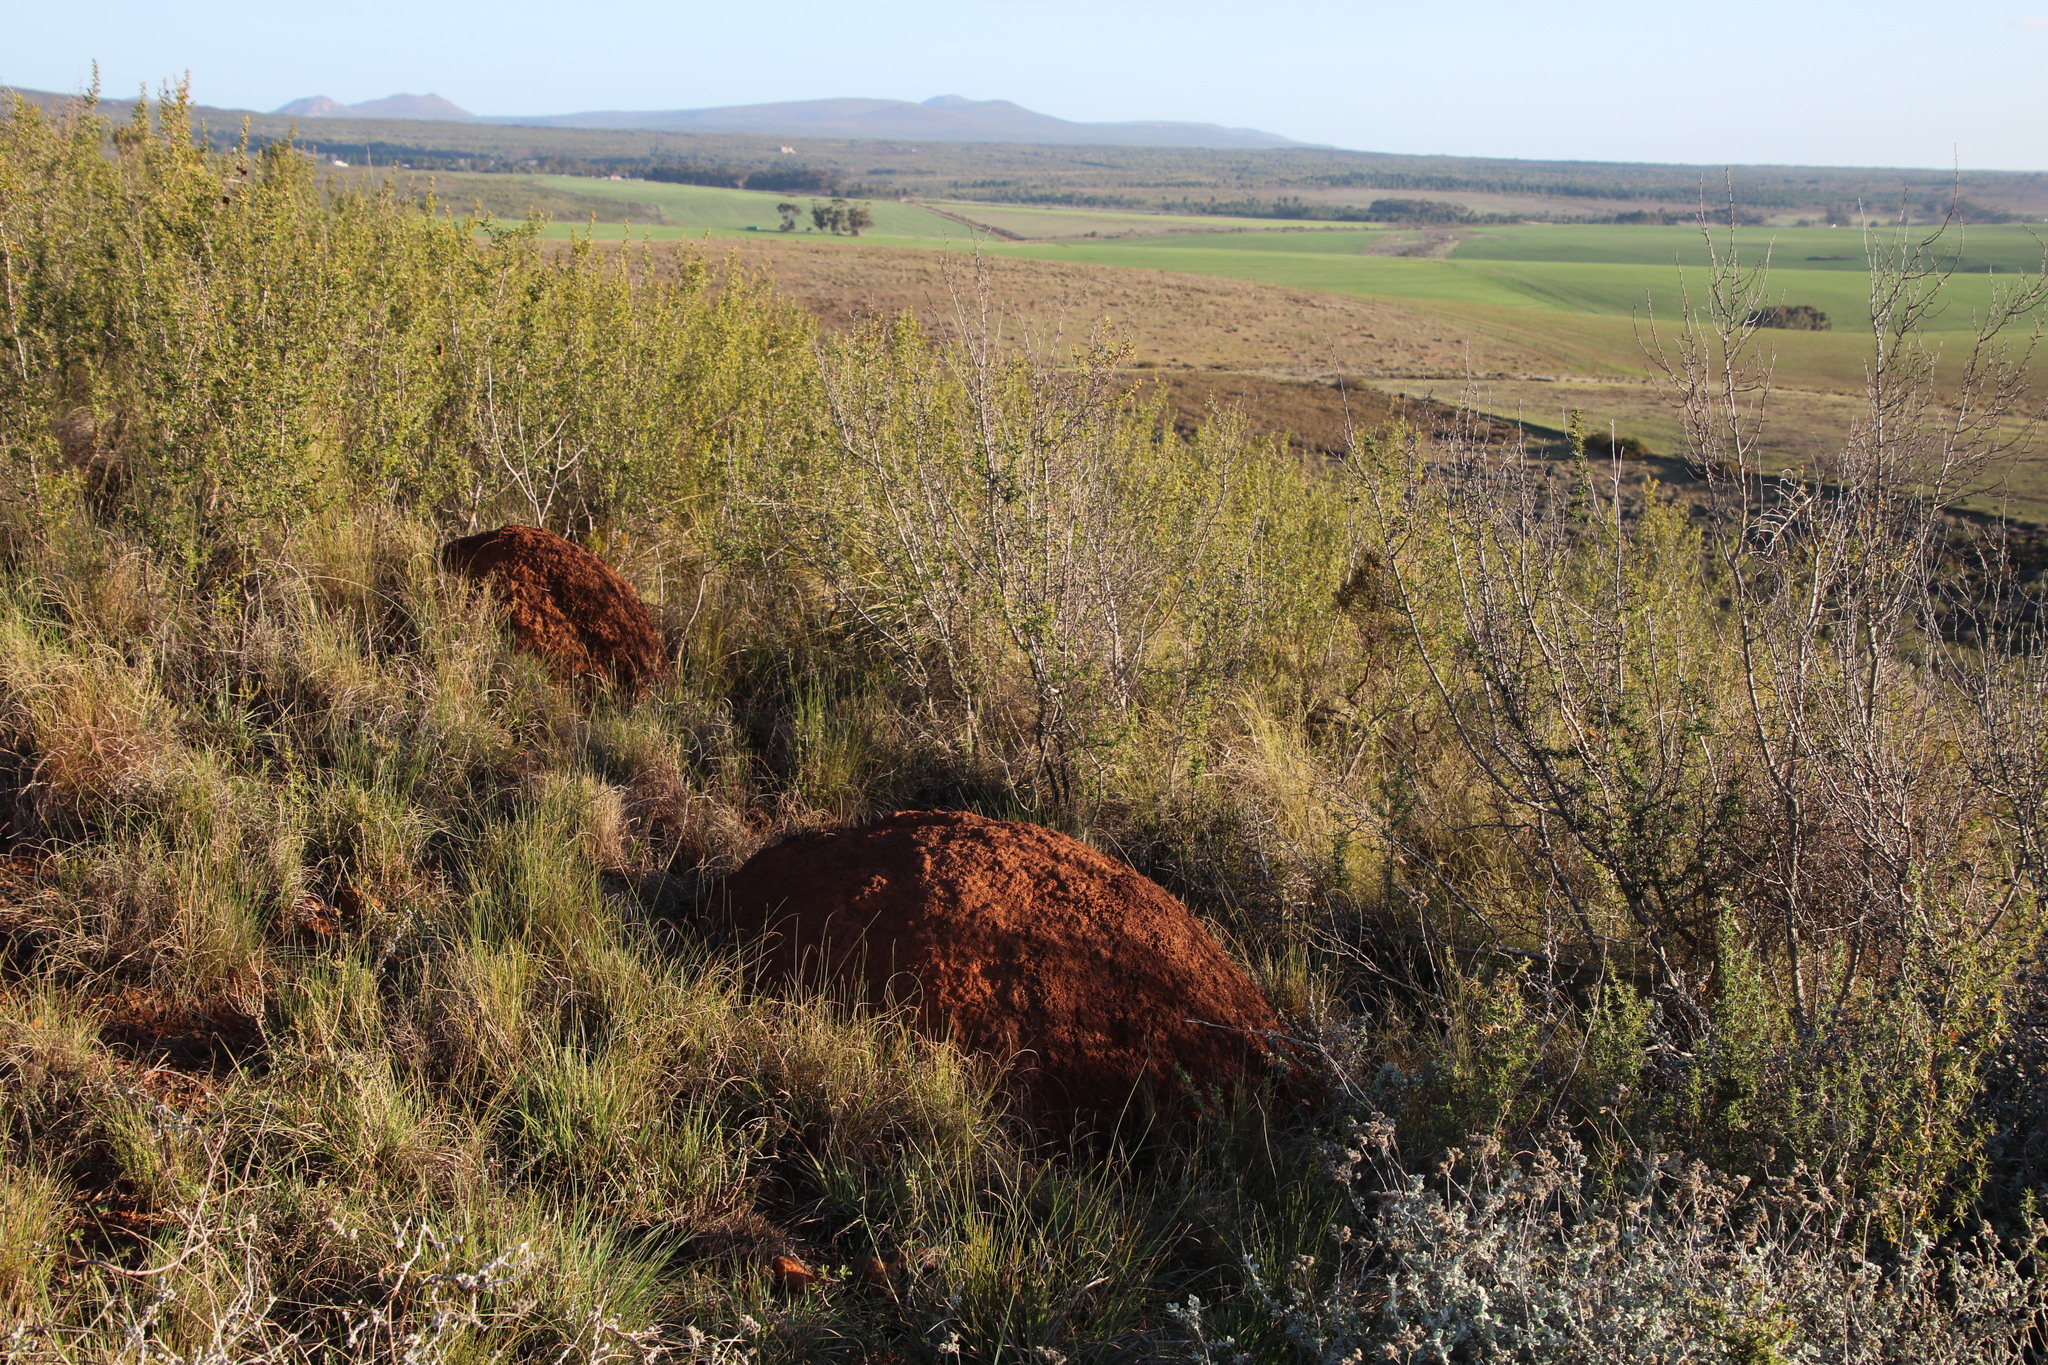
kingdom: Plantae
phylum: Tracheophyta
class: Magnoliopsida
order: Rosales
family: Rosaceae
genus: Cliffortia
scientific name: Cliffortia ruscifolia
